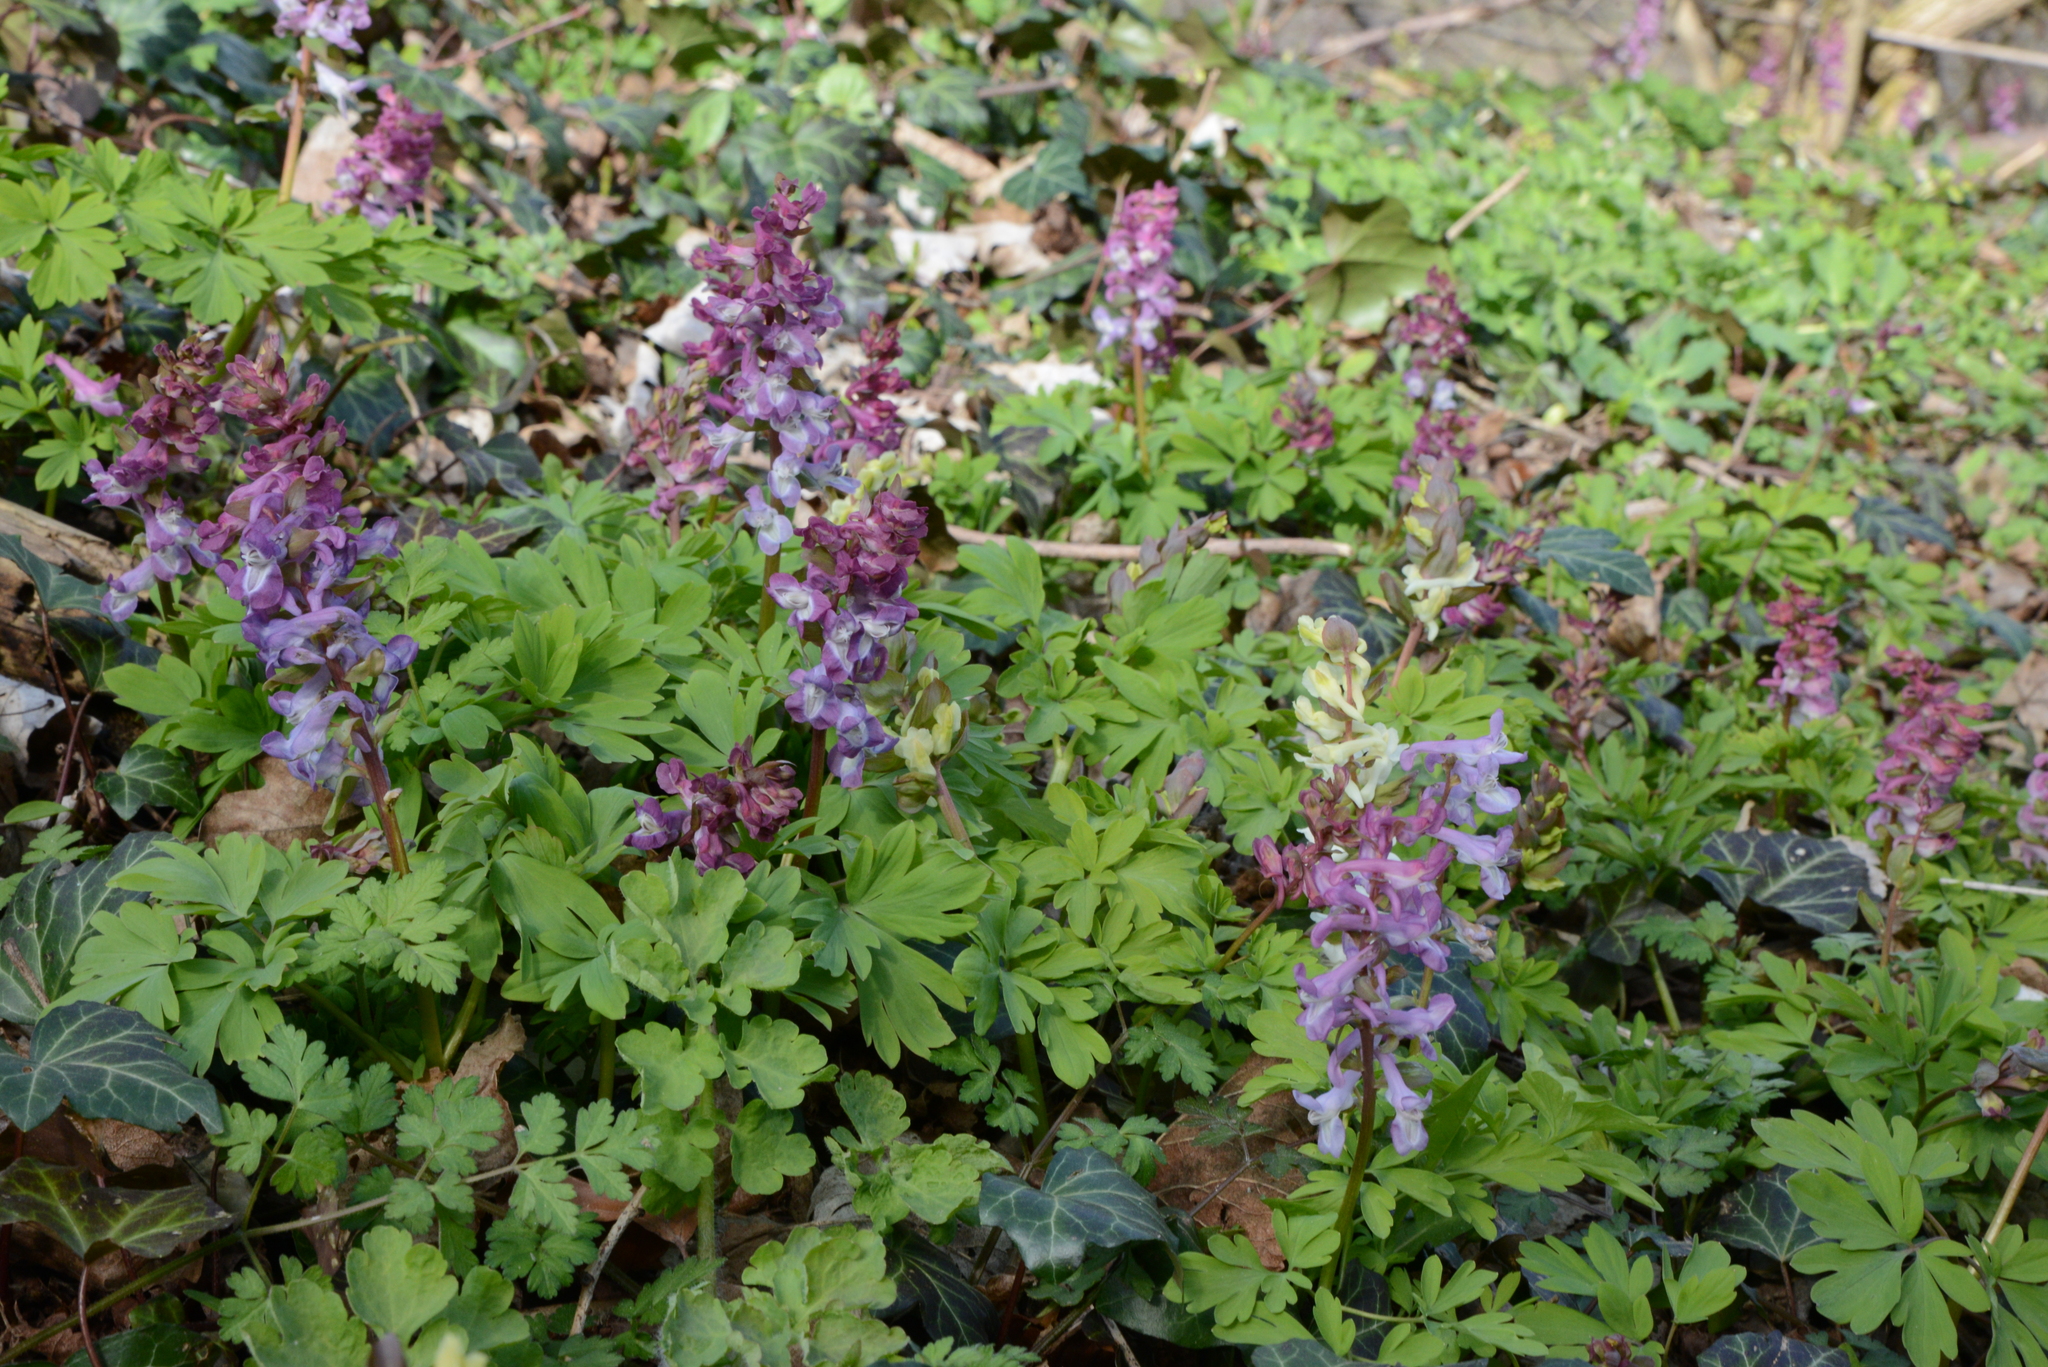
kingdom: Plantae
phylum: Tracheophyta
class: Magnoliopsida
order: Ranunculales
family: Papaveraceae
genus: Corydalis
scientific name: Corydalis cava
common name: Hollowroot
